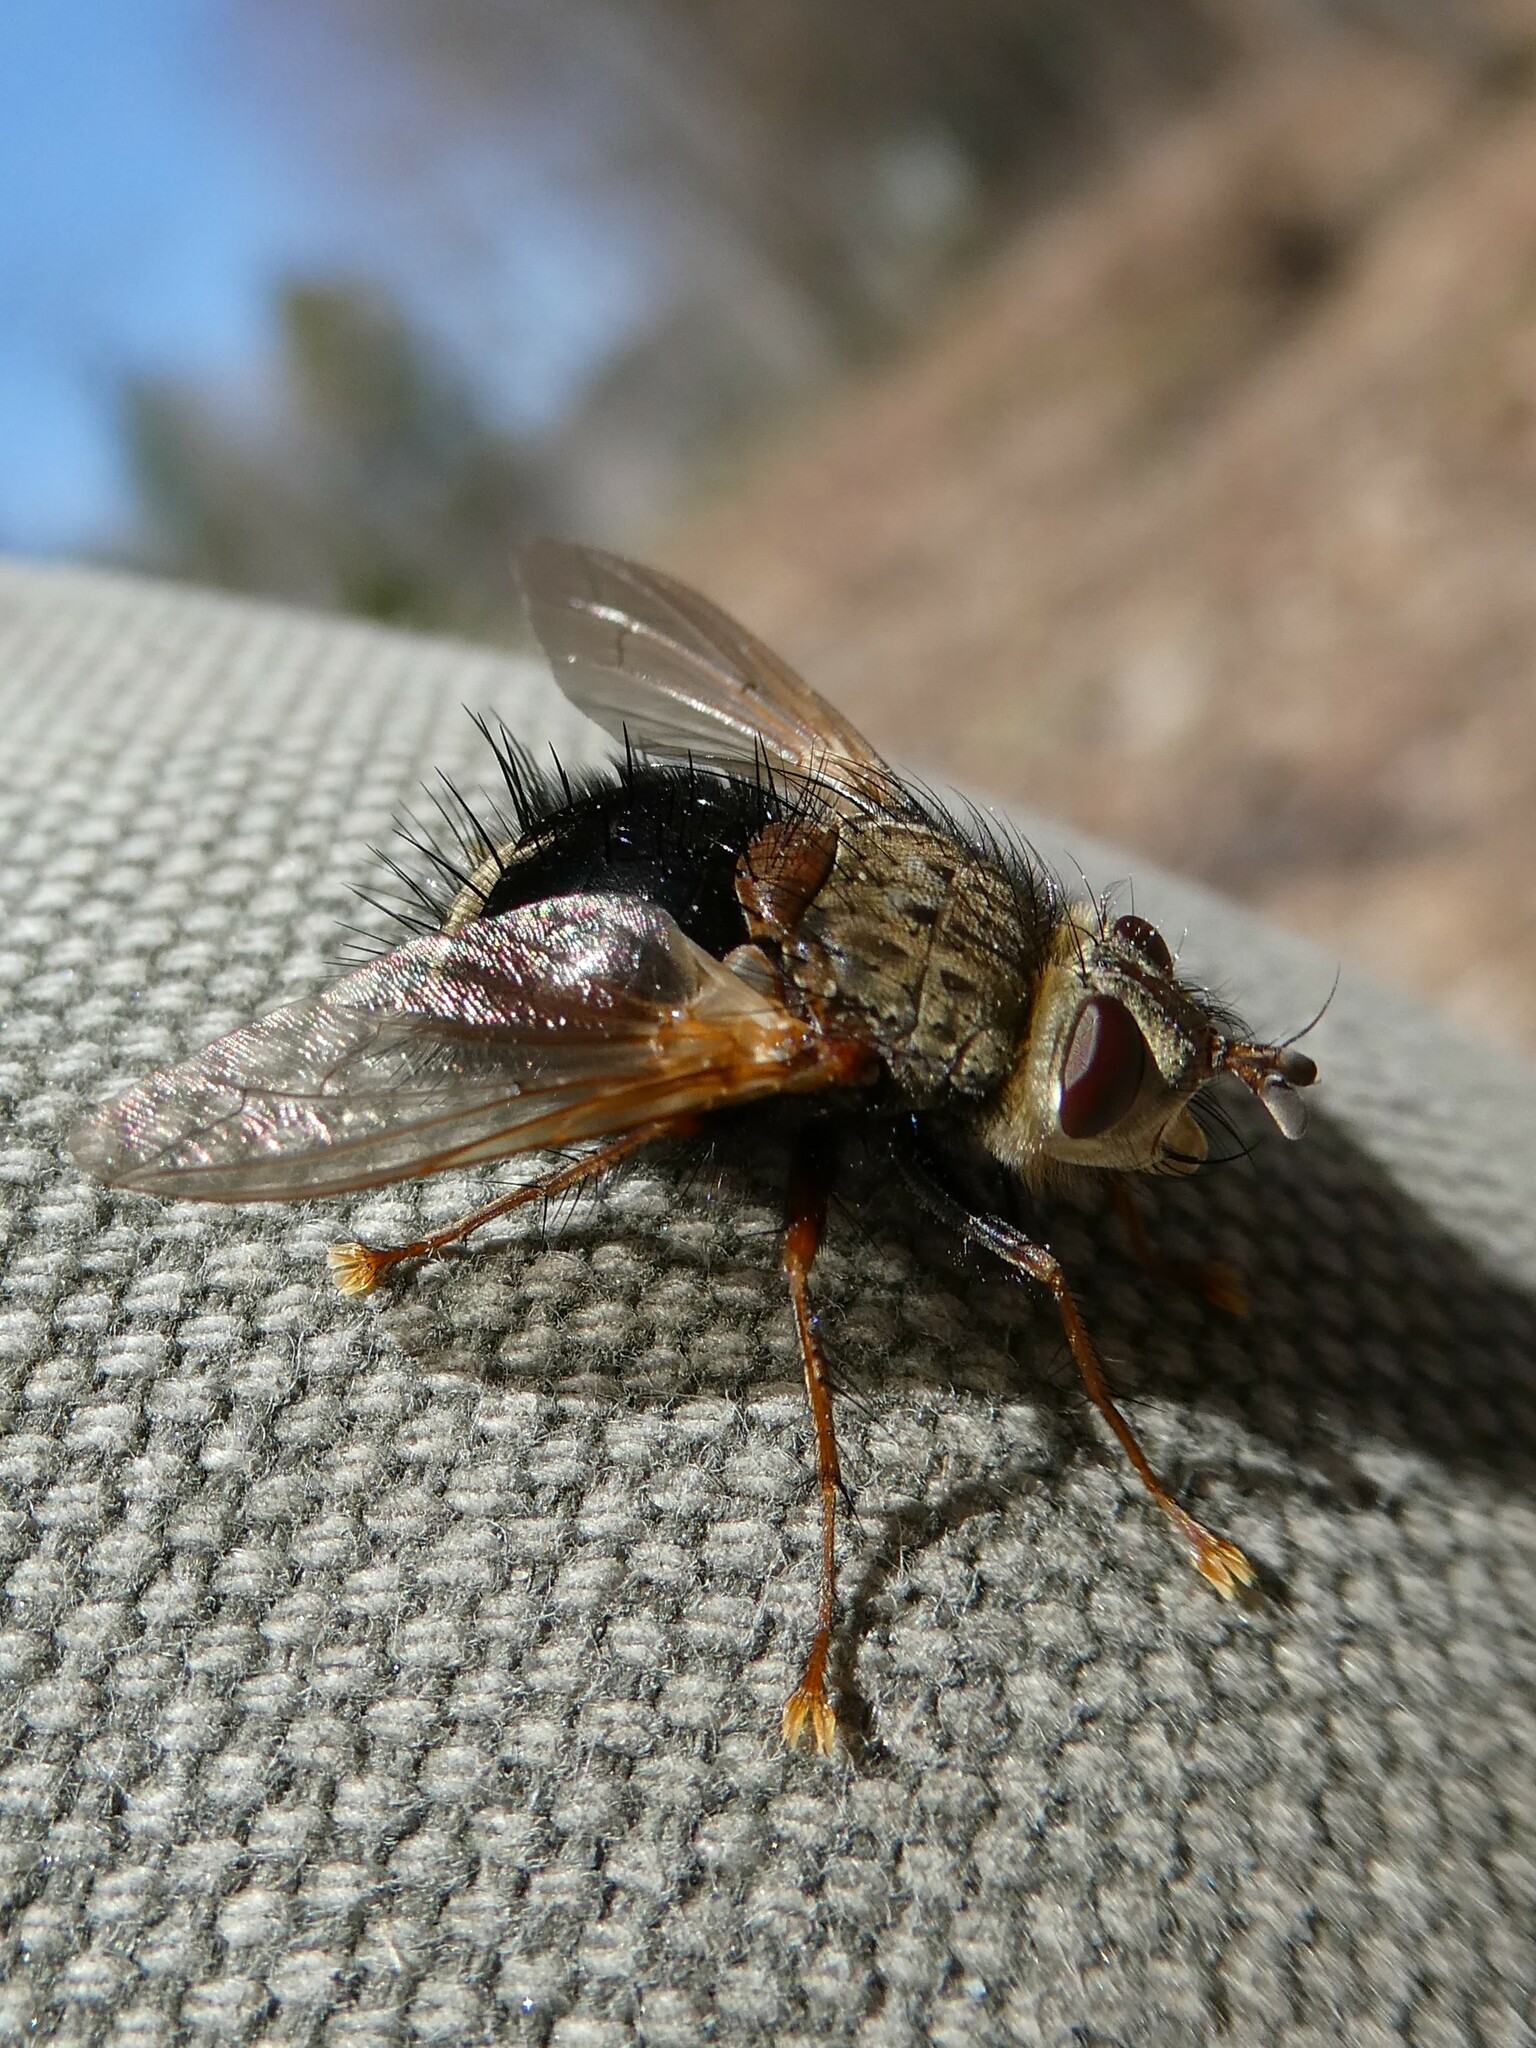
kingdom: Animalia
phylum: Arthropoda
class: Insecta
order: Diptera
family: Tachinidae
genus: Epalpus
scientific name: Epalpus signifer
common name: Early tachinid fly
